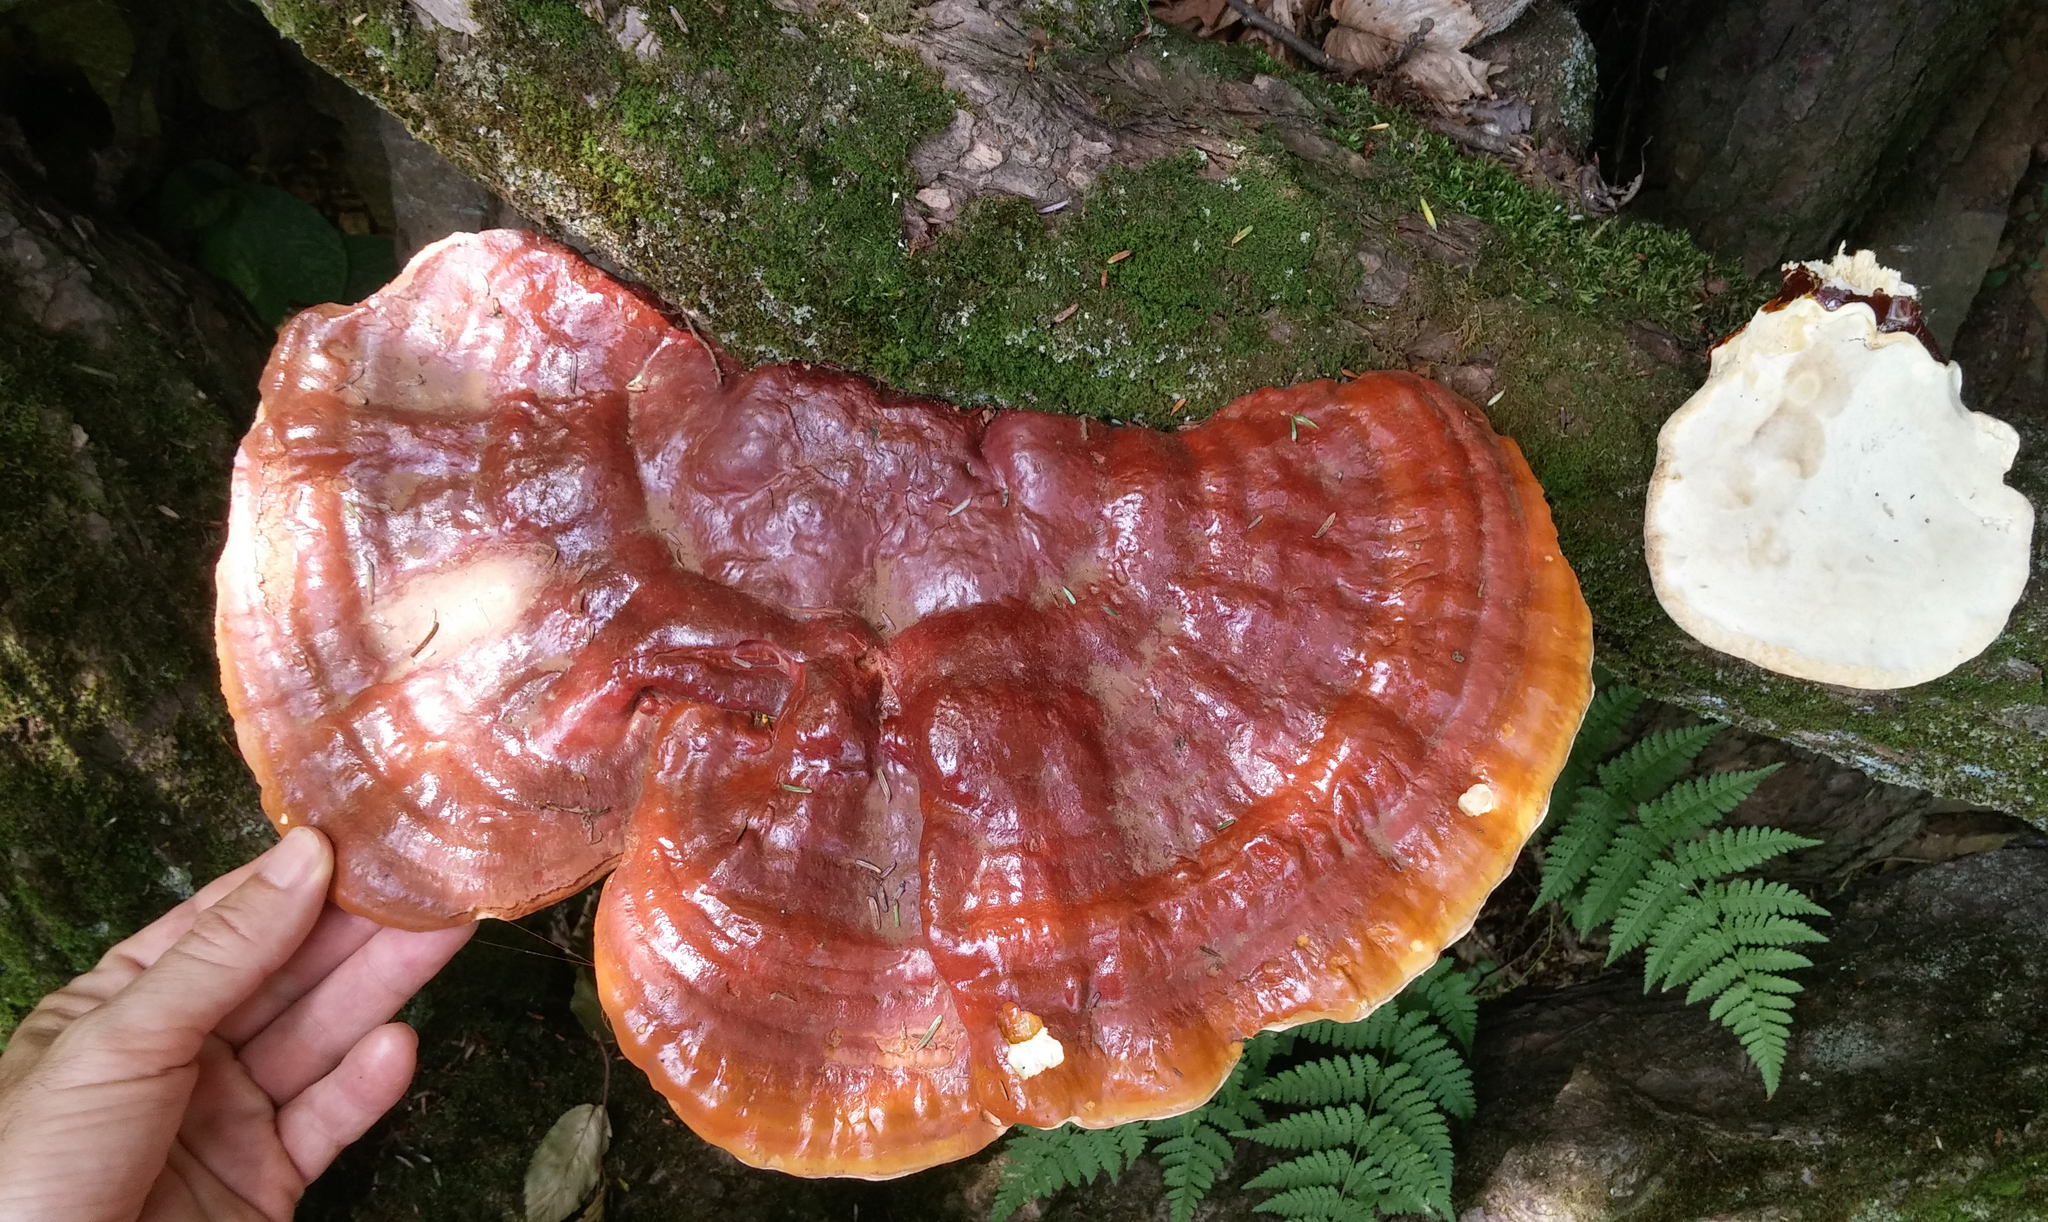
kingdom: Fungi
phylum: Basidiomycota
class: Agaricomycetes
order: Polyporales
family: Polyporaceae
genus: Ganoderma
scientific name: Ganoderma tsugae
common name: Hemlock varnish shelf
